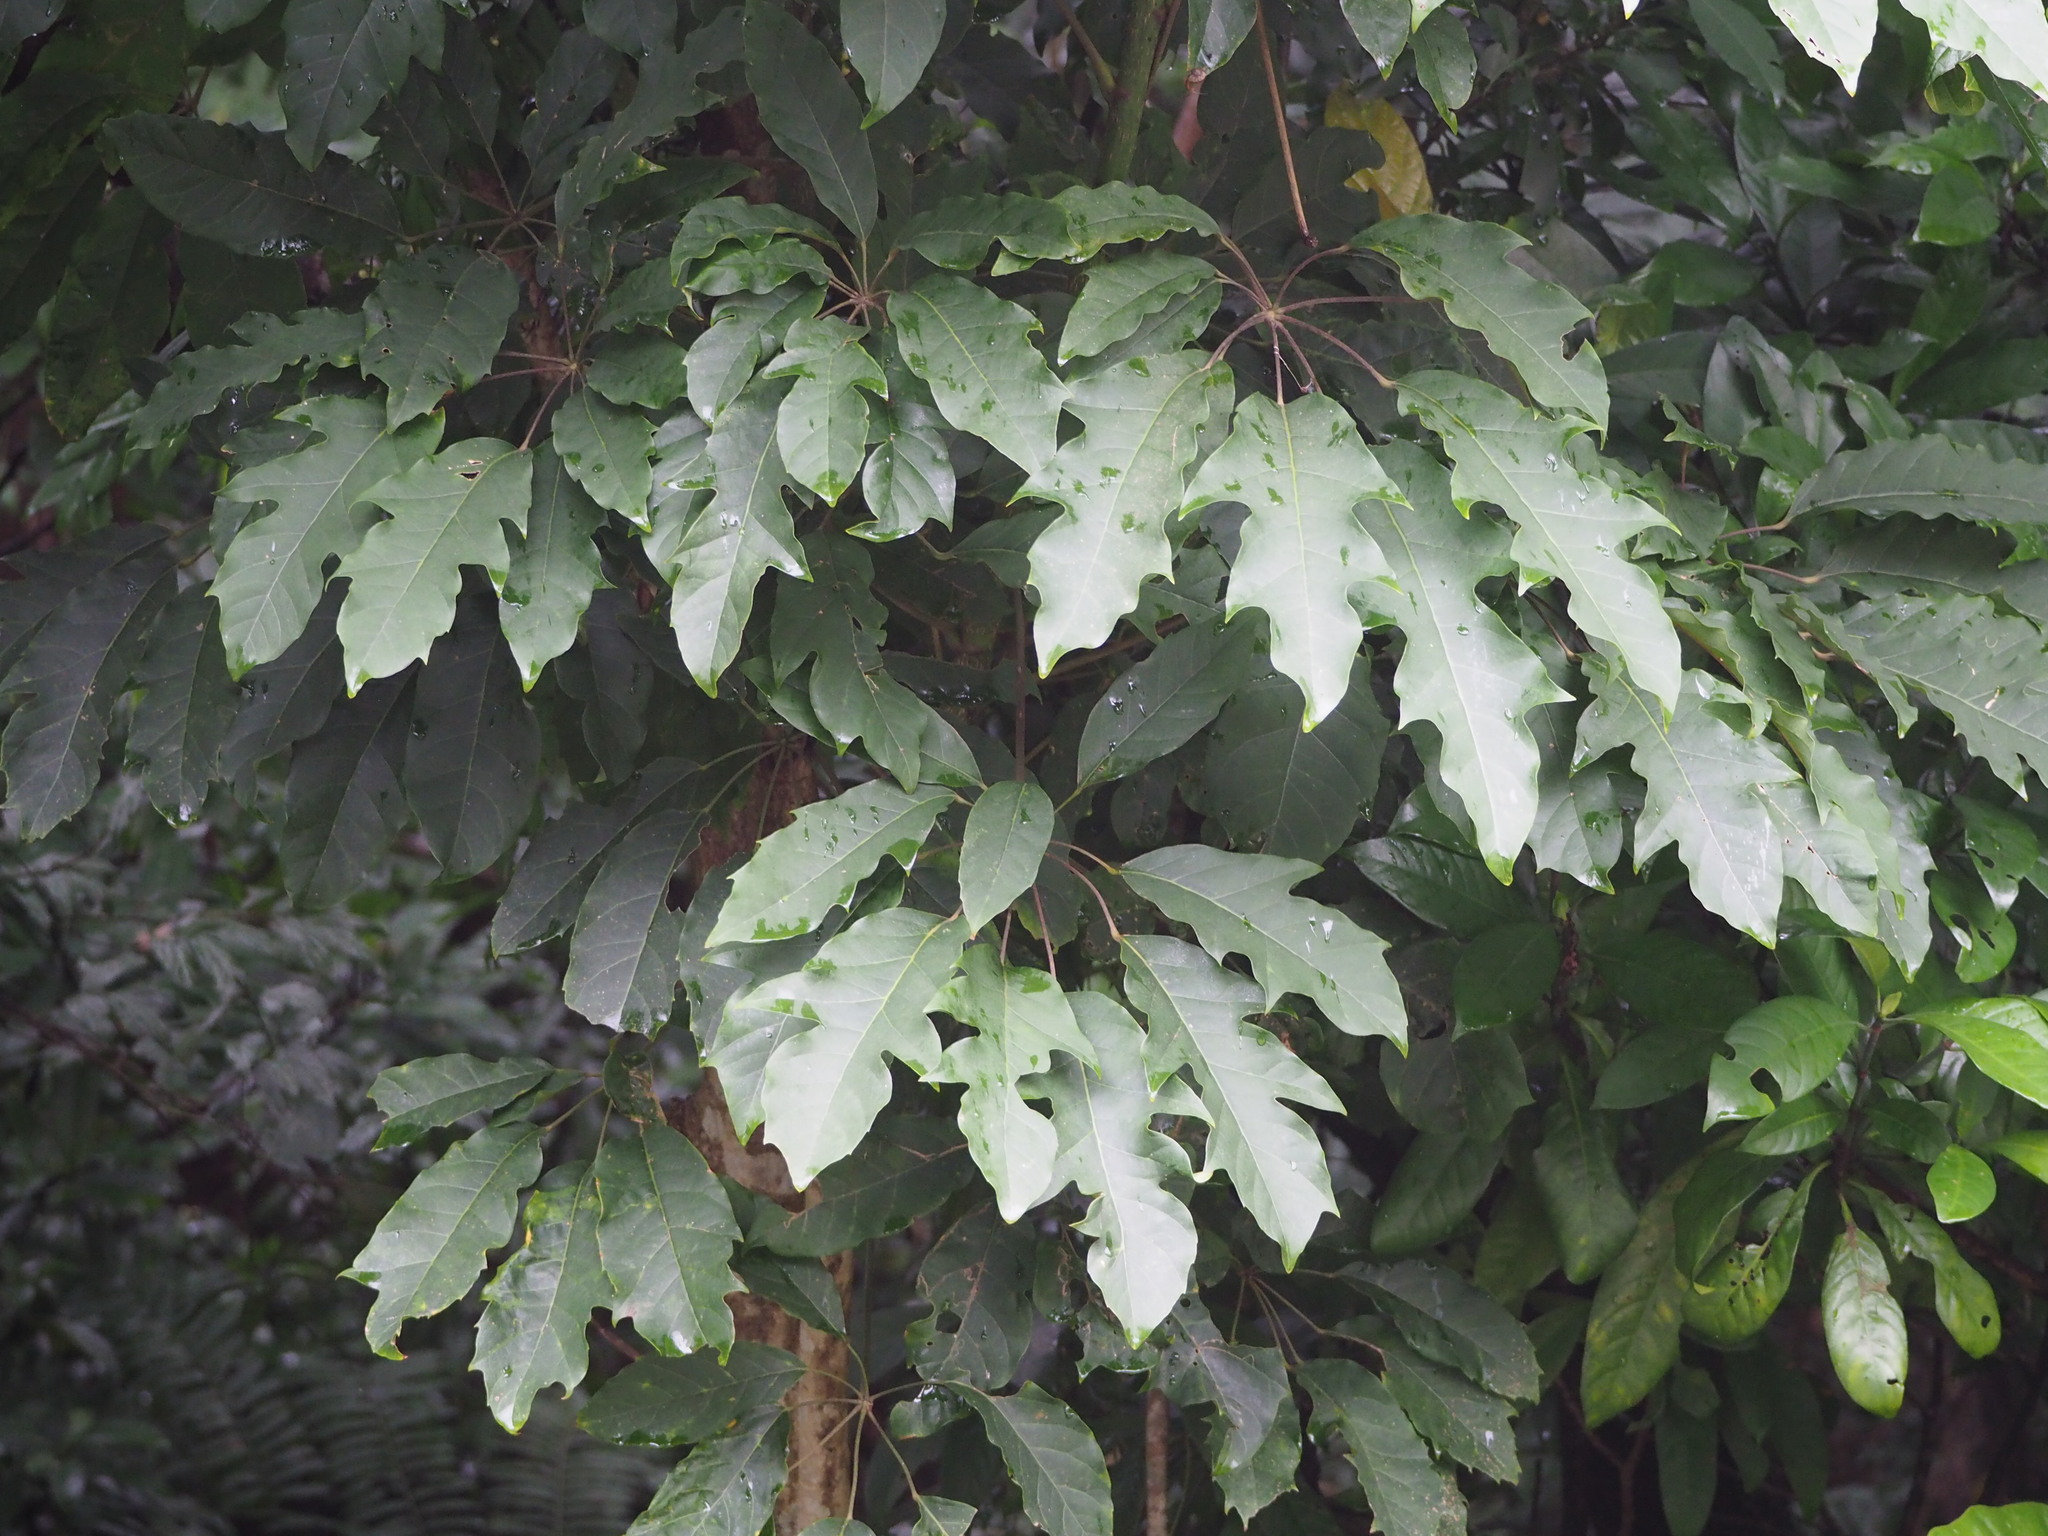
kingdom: Plantae
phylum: Tracheophyta
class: Magnoliopsida
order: Apiales
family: Araliaceae
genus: Heptapleurum
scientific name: Heptapleurum heptaphyllum
